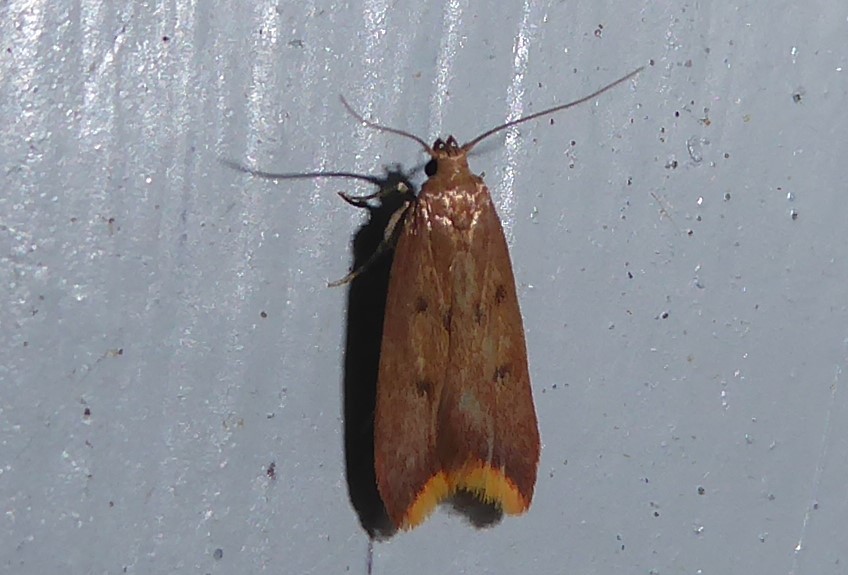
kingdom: Animalia
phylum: Arthropoda
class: Insecta
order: Lepidoptera
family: Oecophoridae
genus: Tachystola
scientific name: Tachystola acroxantha
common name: Ruddy streak
